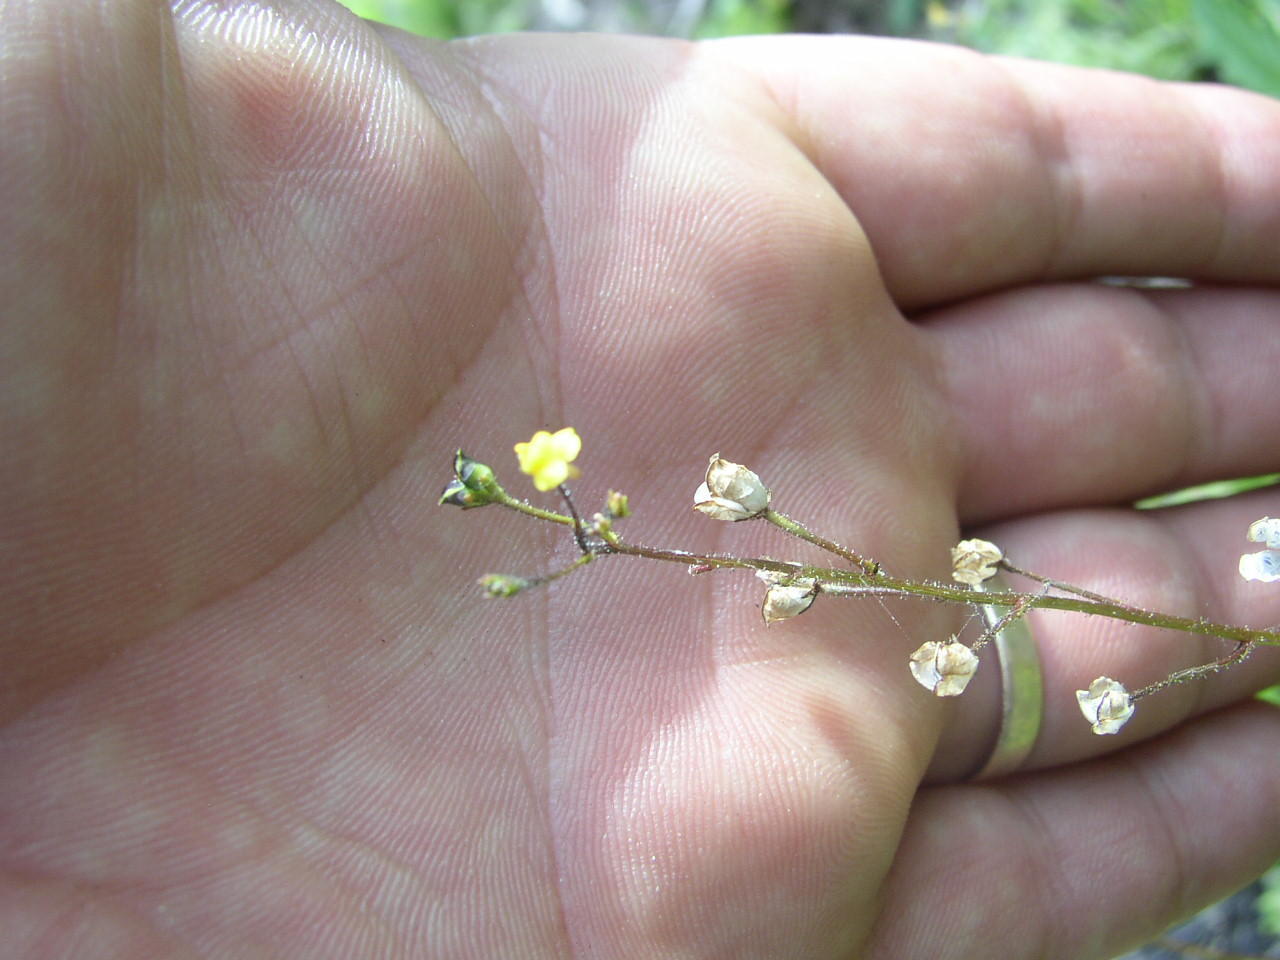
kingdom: Plantae
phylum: Tracheophyta
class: Magnoliopsida
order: Lamiales
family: Scrophulariaceae
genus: Nemesia
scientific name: Nemesia pinnata
